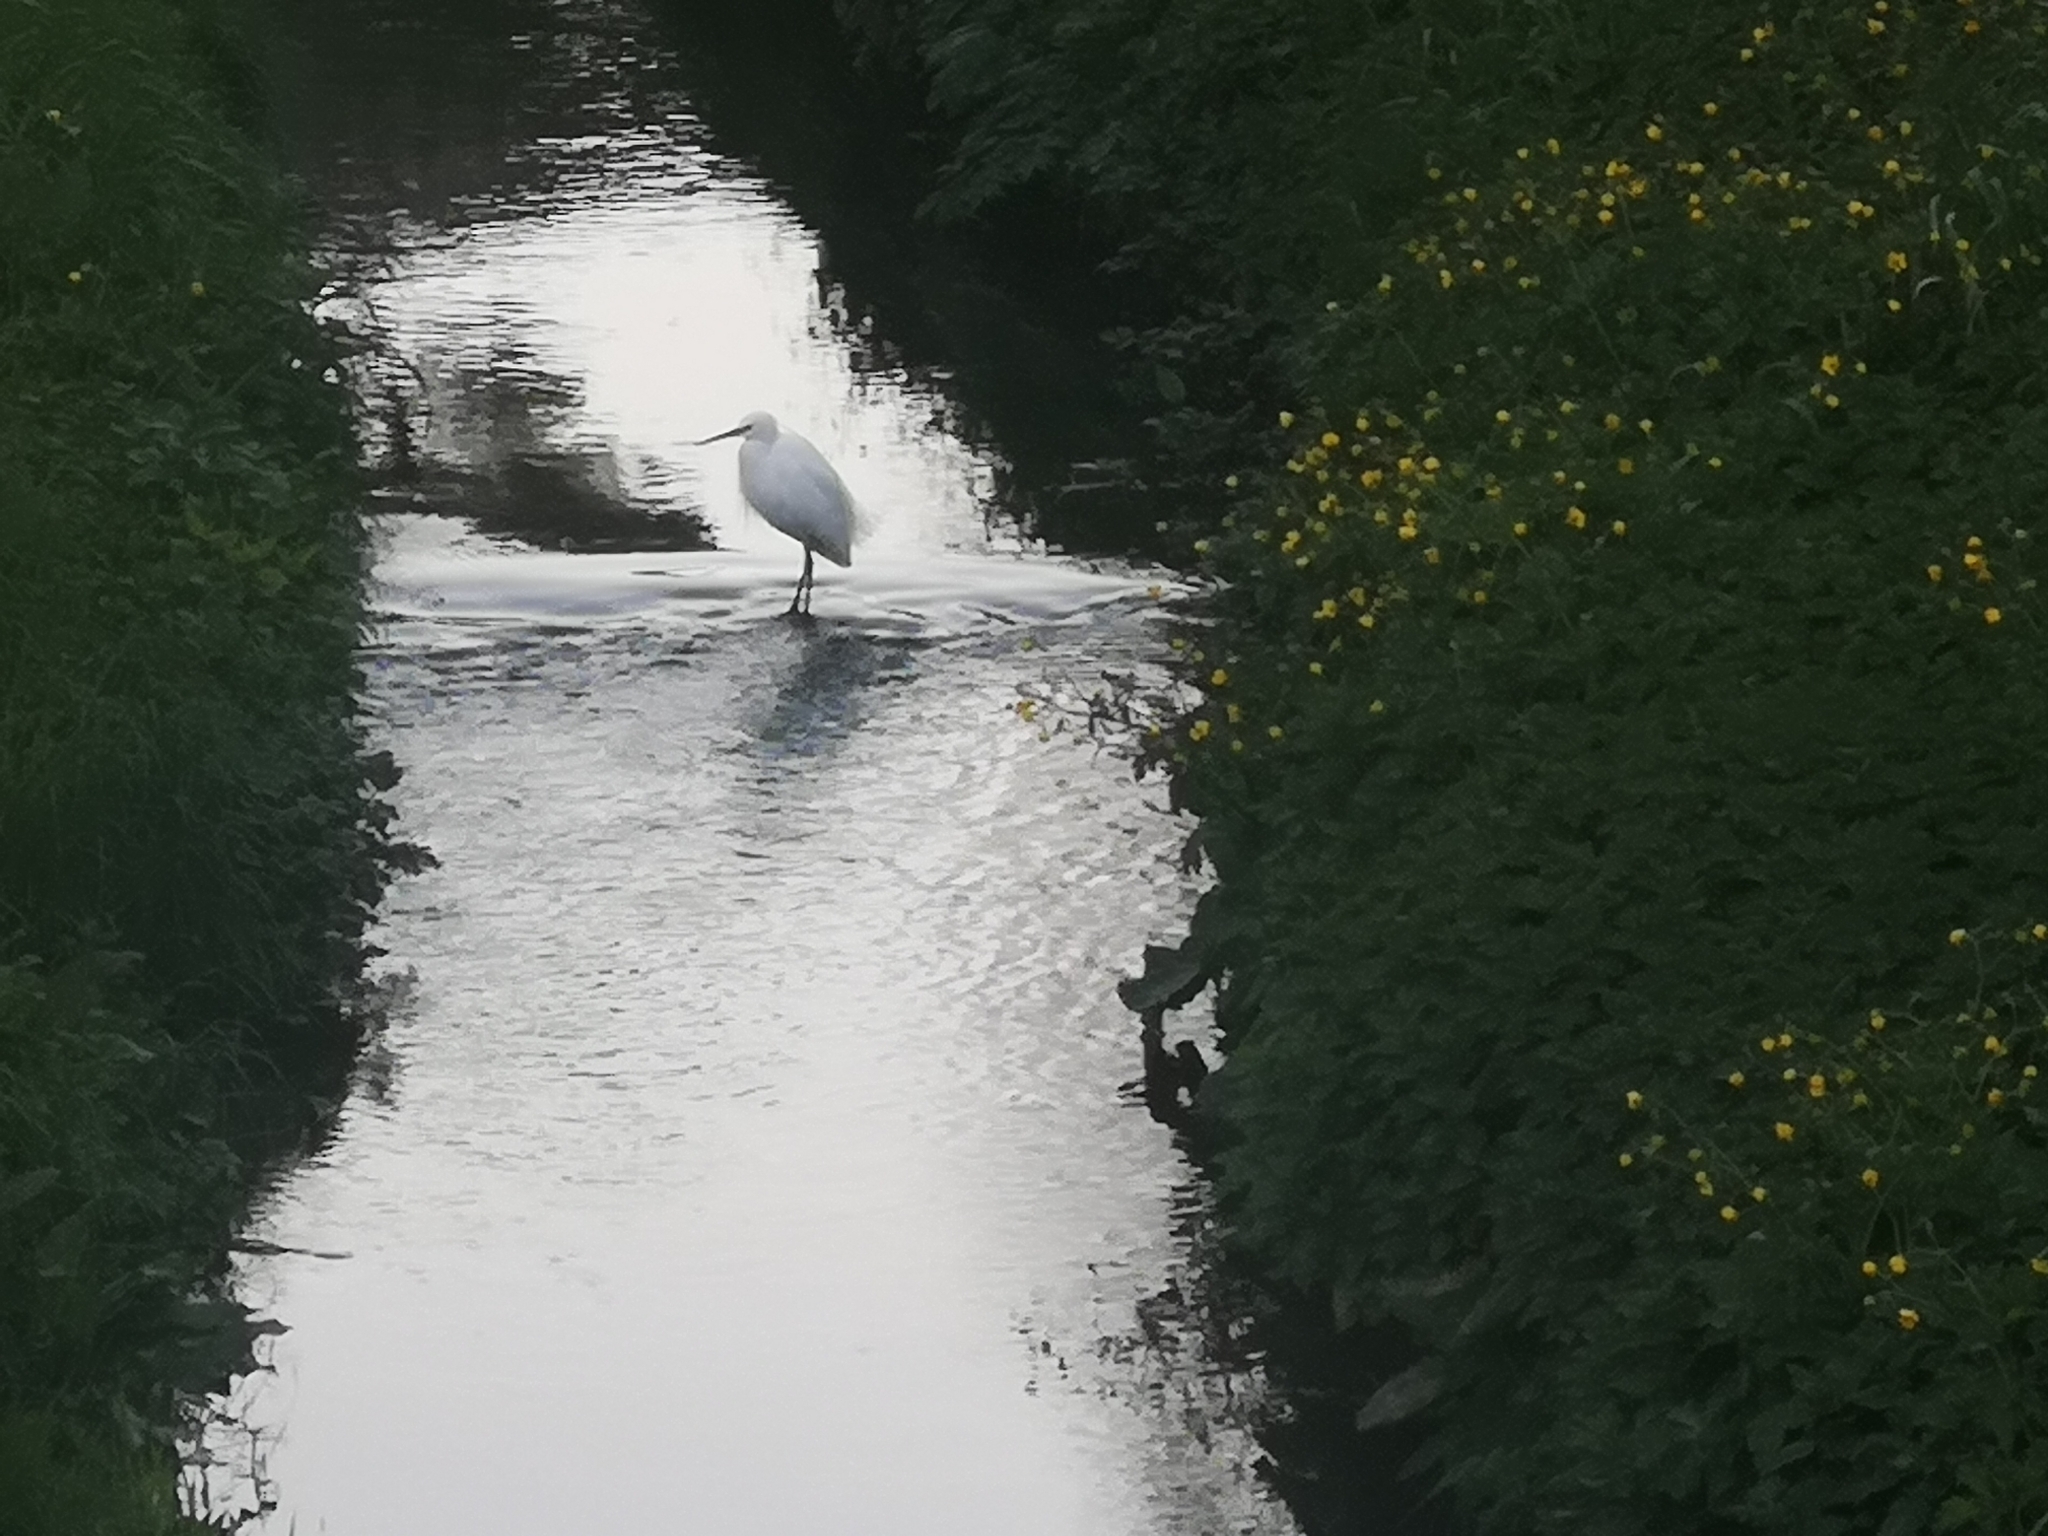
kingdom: Animalia
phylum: Chordata
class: Aves
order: Pelecaniformes
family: Ardeidae
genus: Egretta
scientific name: Egretta garzetta
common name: Little egret
